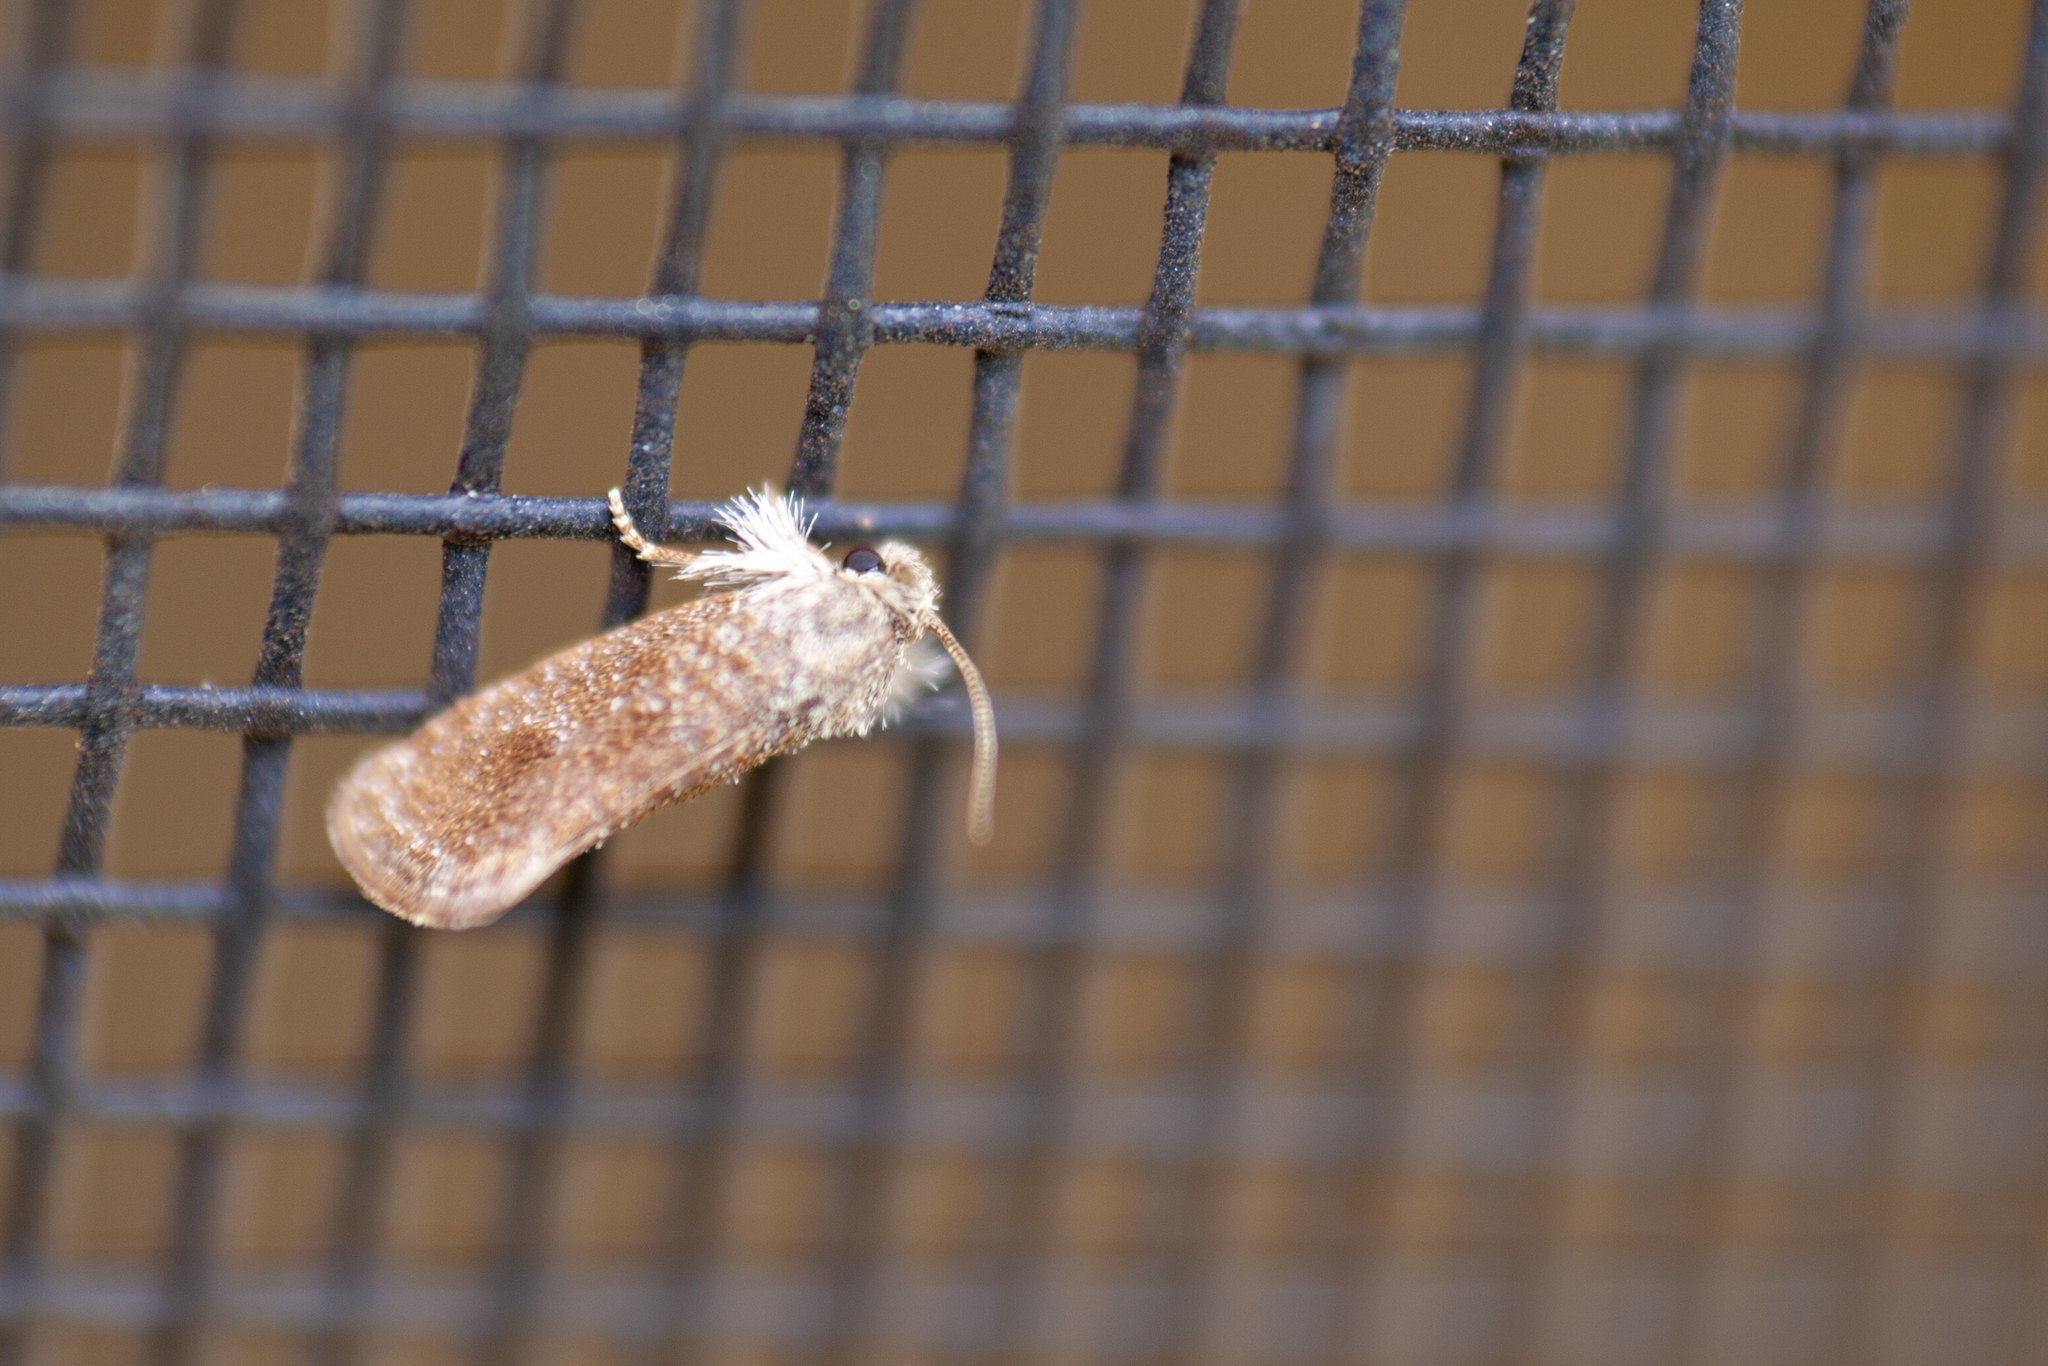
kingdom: Animalia
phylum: Arthropoda
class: Insecta
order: Lepidoptera
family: Tineidae
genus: Acrolophus
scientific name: Acrolophus heppneri
